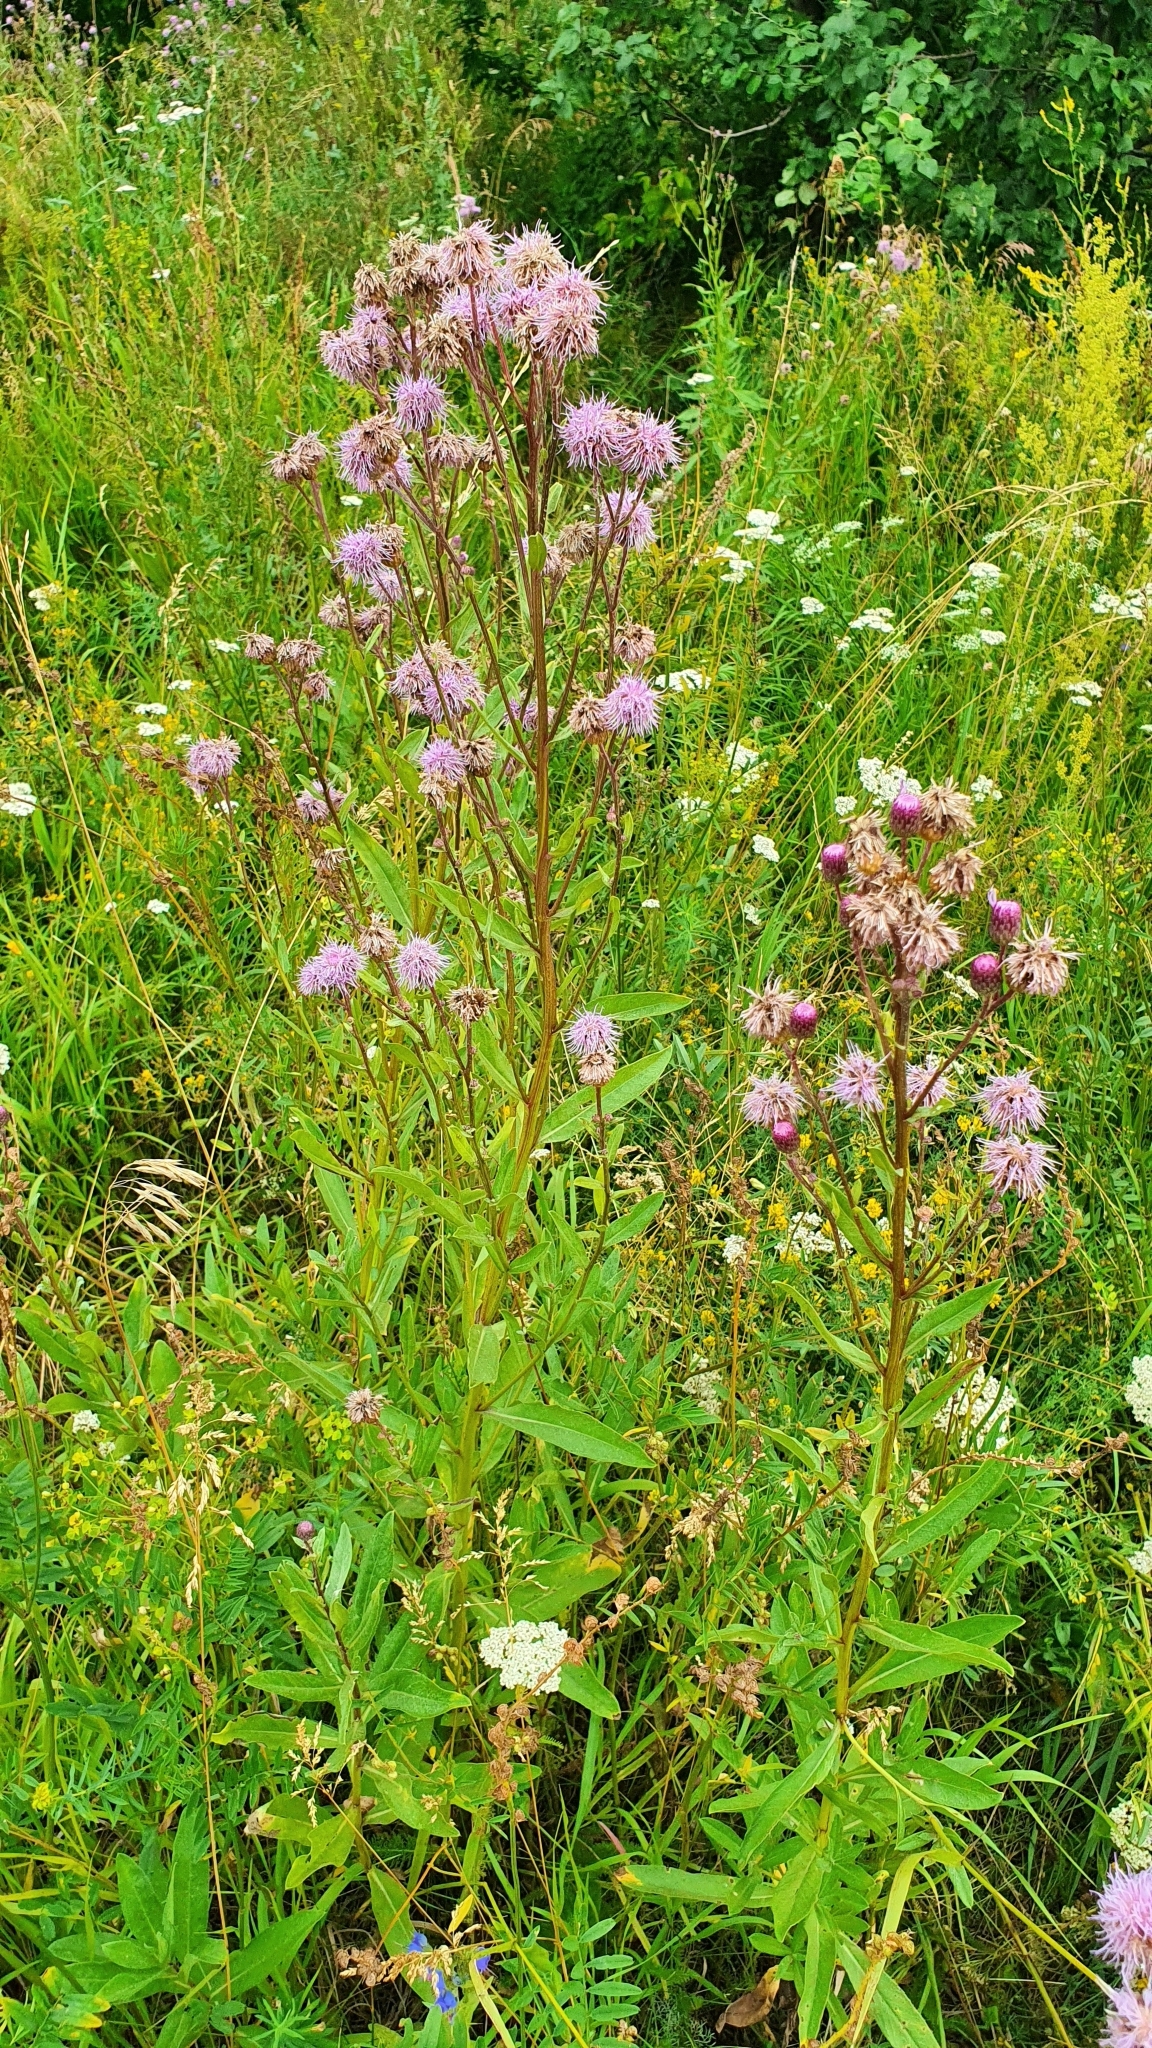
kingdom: Plantae
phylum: Tracheophyta
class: Magnoliopsida
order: Asterales
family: Asteraceae
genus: Cirsium
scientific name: Cirsium arvense
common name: Creeping thistle
